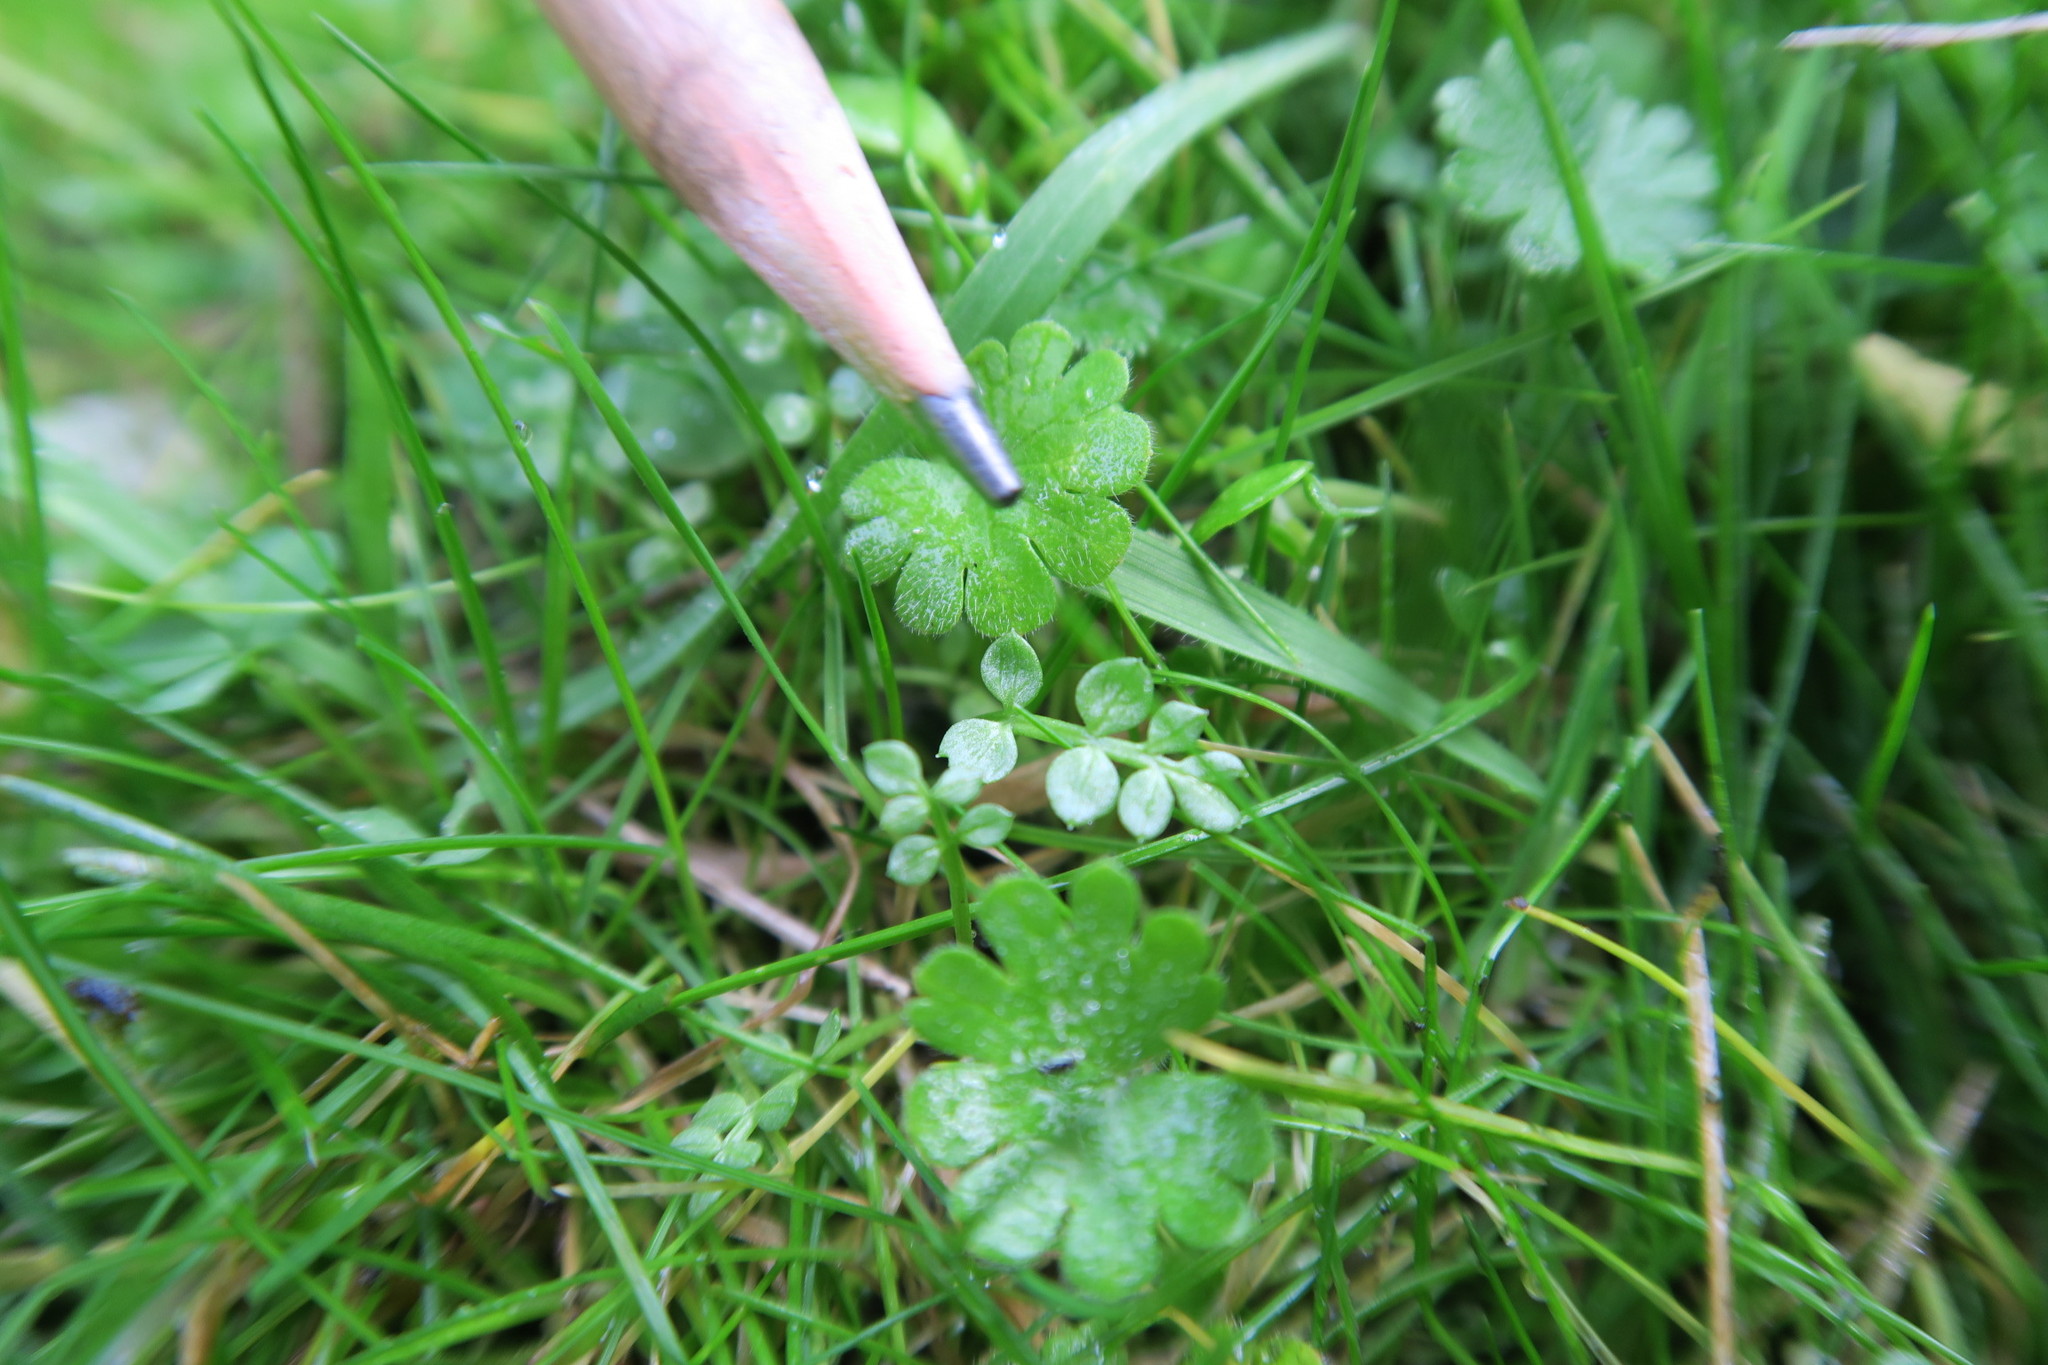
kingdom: Plantae
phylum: Tracheophyta
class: Magnoliopsida
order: Brassicales
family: Limnanthaceae
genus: Limnanthes
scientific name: Limnanthes macounii
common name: Macoun's meadowfoam
